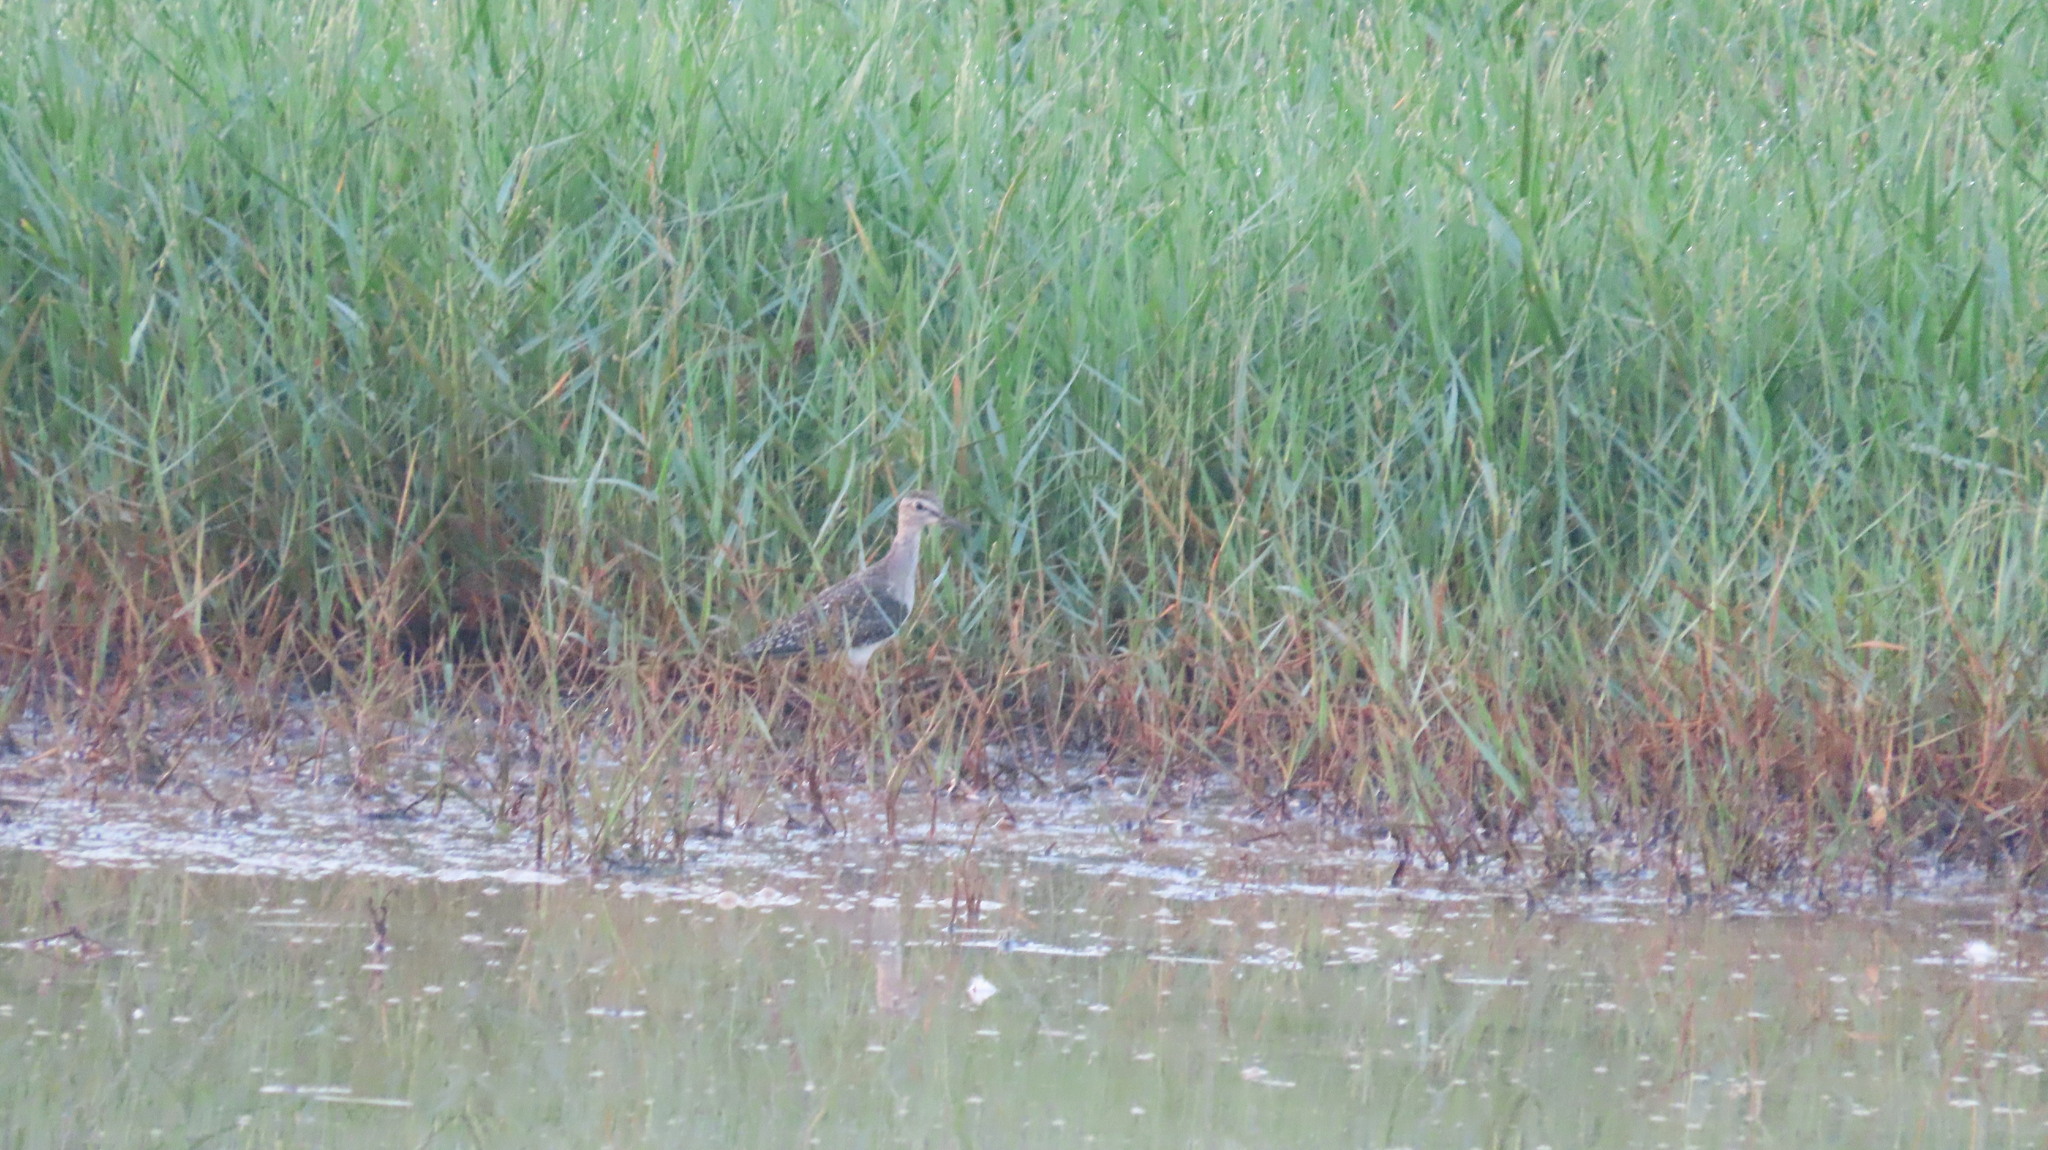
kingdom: Animalia
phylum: Chordata
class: Aves
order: Charadriiformes
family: Scolopacidae
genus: Tringa
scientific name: Tringa glareola
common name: Wood sandpiper
